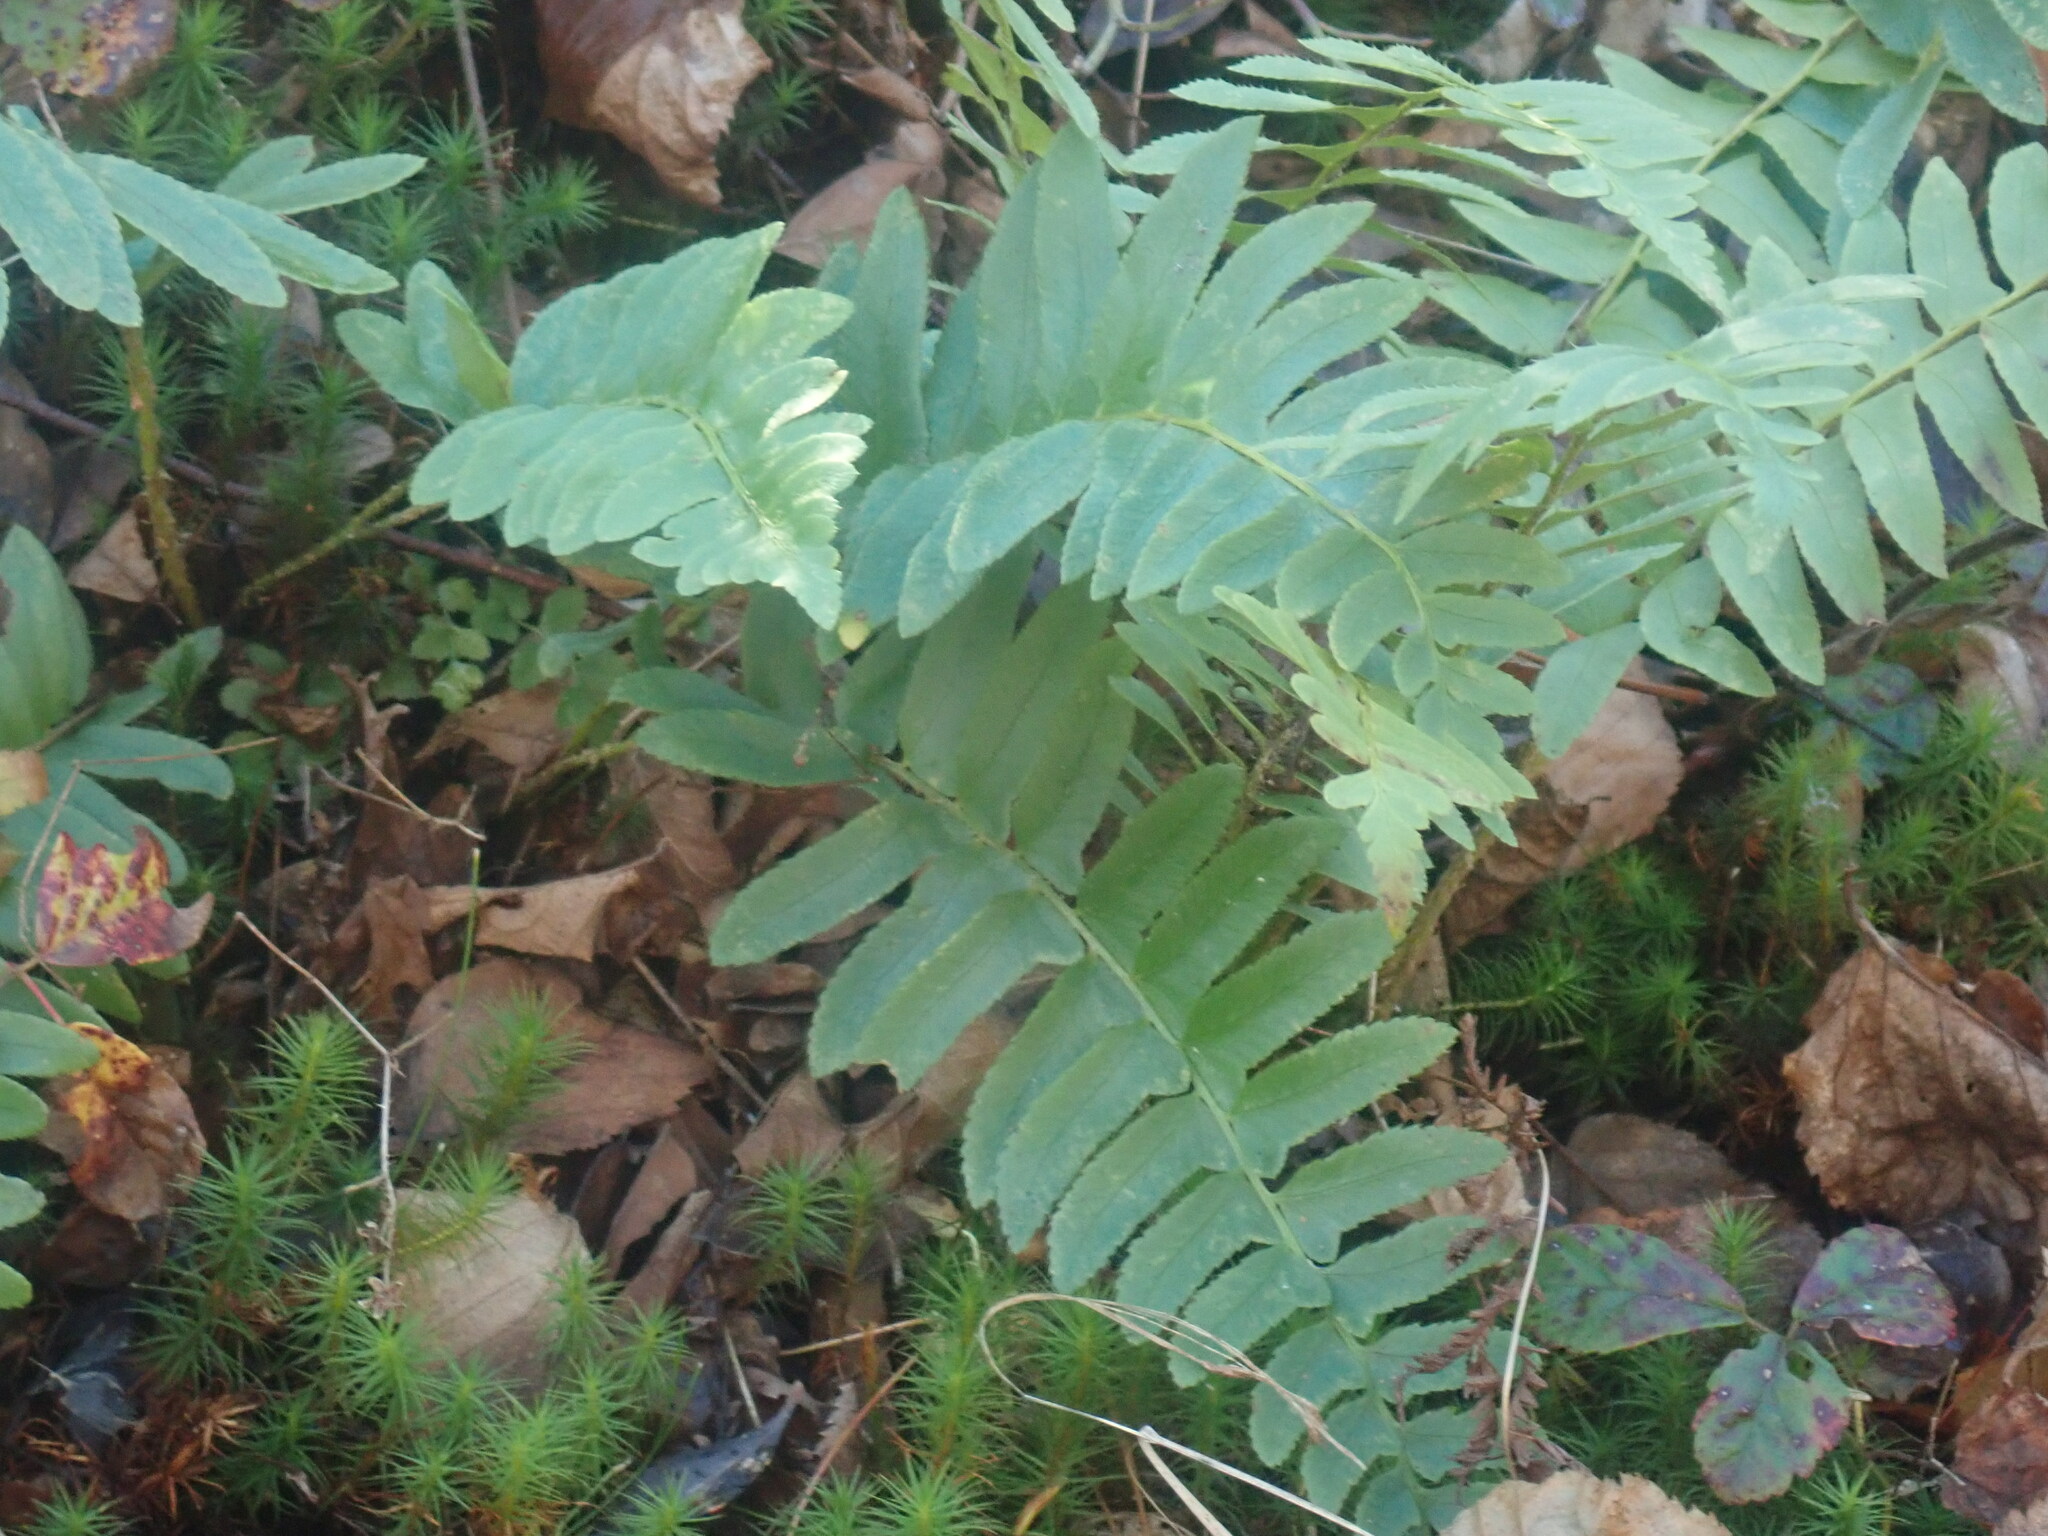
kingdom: Plantae
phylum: Tracheophyta
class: Polypodiopsida
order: Polypodiales
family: Dryopteridaceae
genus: Polystichum
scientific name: Polystichum acrostichoides
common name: Christmas fern
